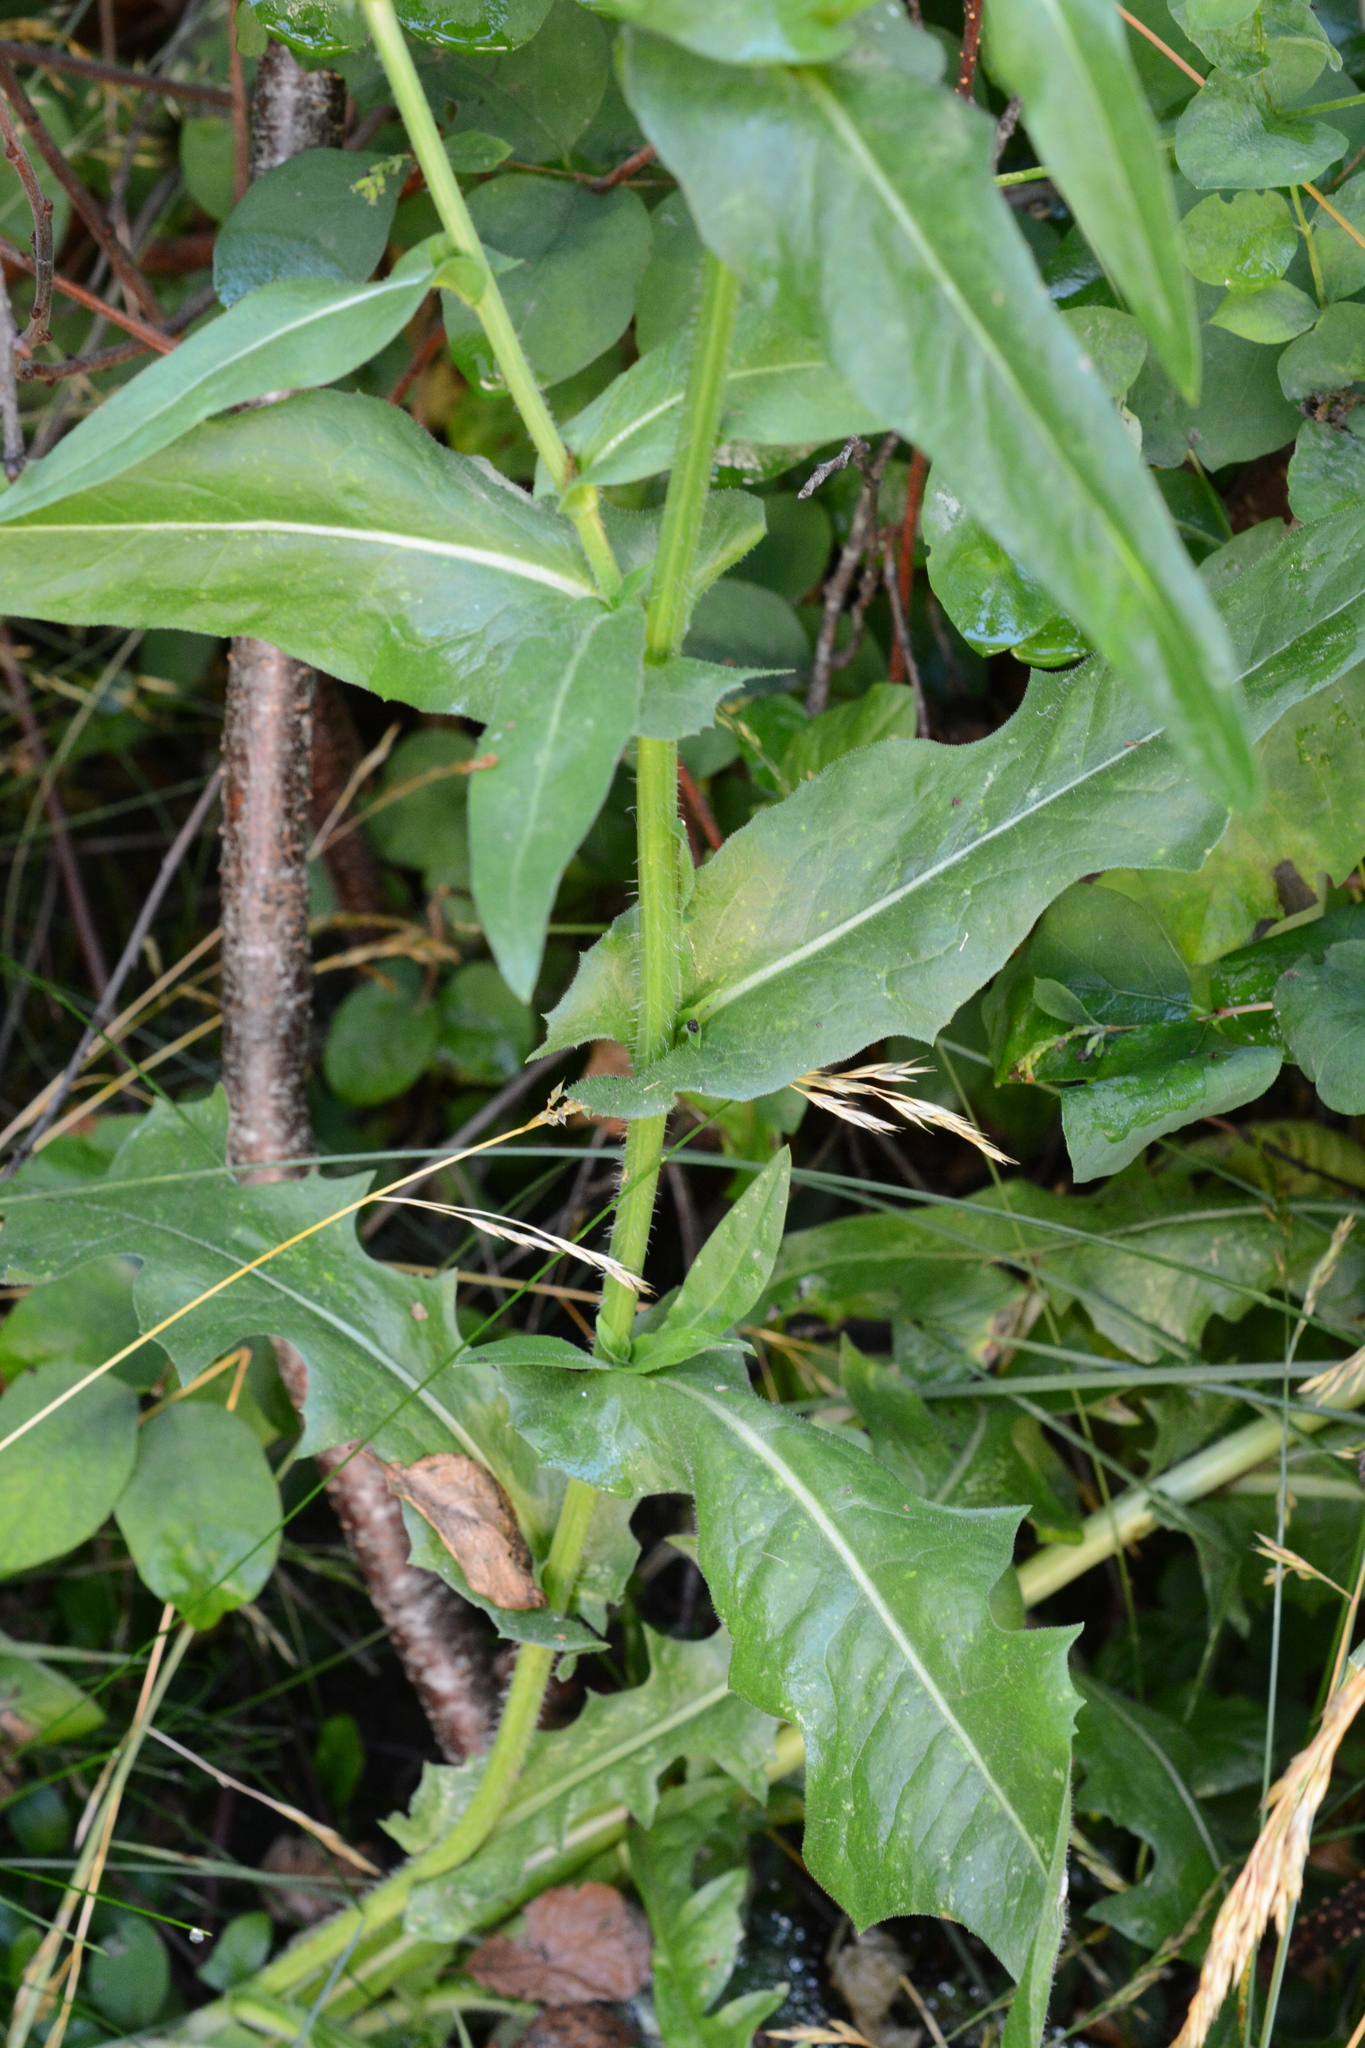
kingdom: Plantae
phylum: Tracheophyta
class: Magnoliopsida
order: Asterales
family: Asteraceae
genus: Cichorium
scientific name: Cichorium intybus
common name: Chicory
